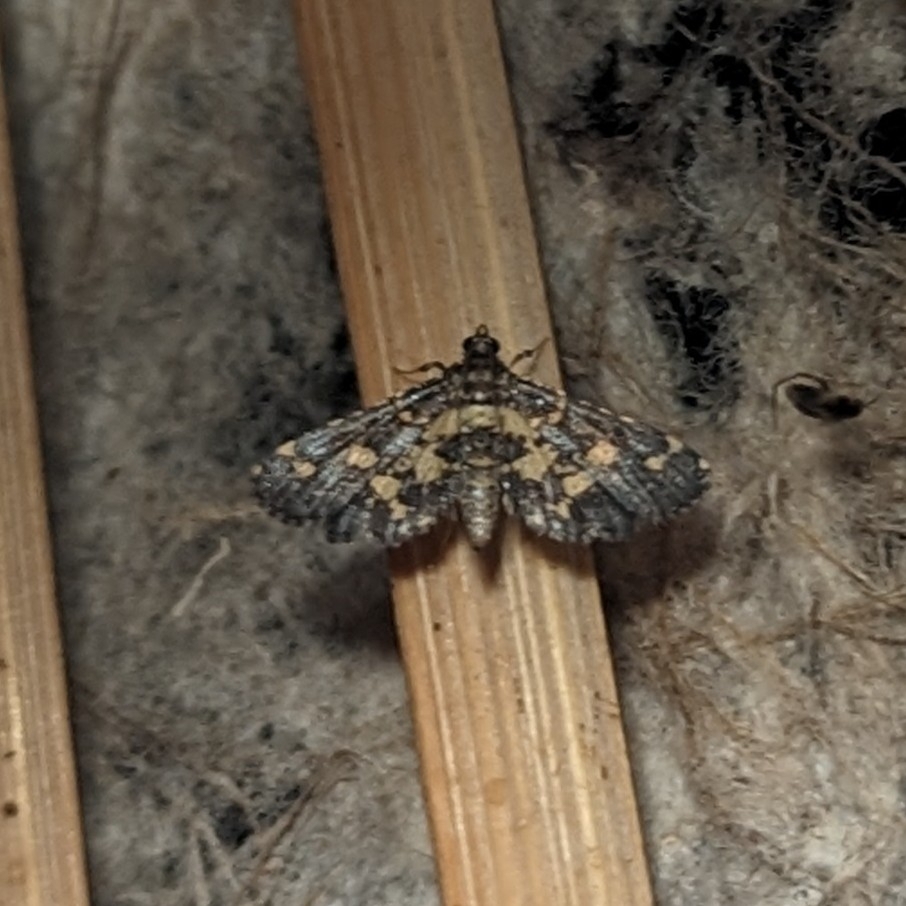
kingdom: Animalia
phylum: Arthropoda
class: Insecta
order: Lepidoptera
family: Crambidae
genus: Eurrhyparodes
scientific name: Eurrhyparodes bracteolalis
